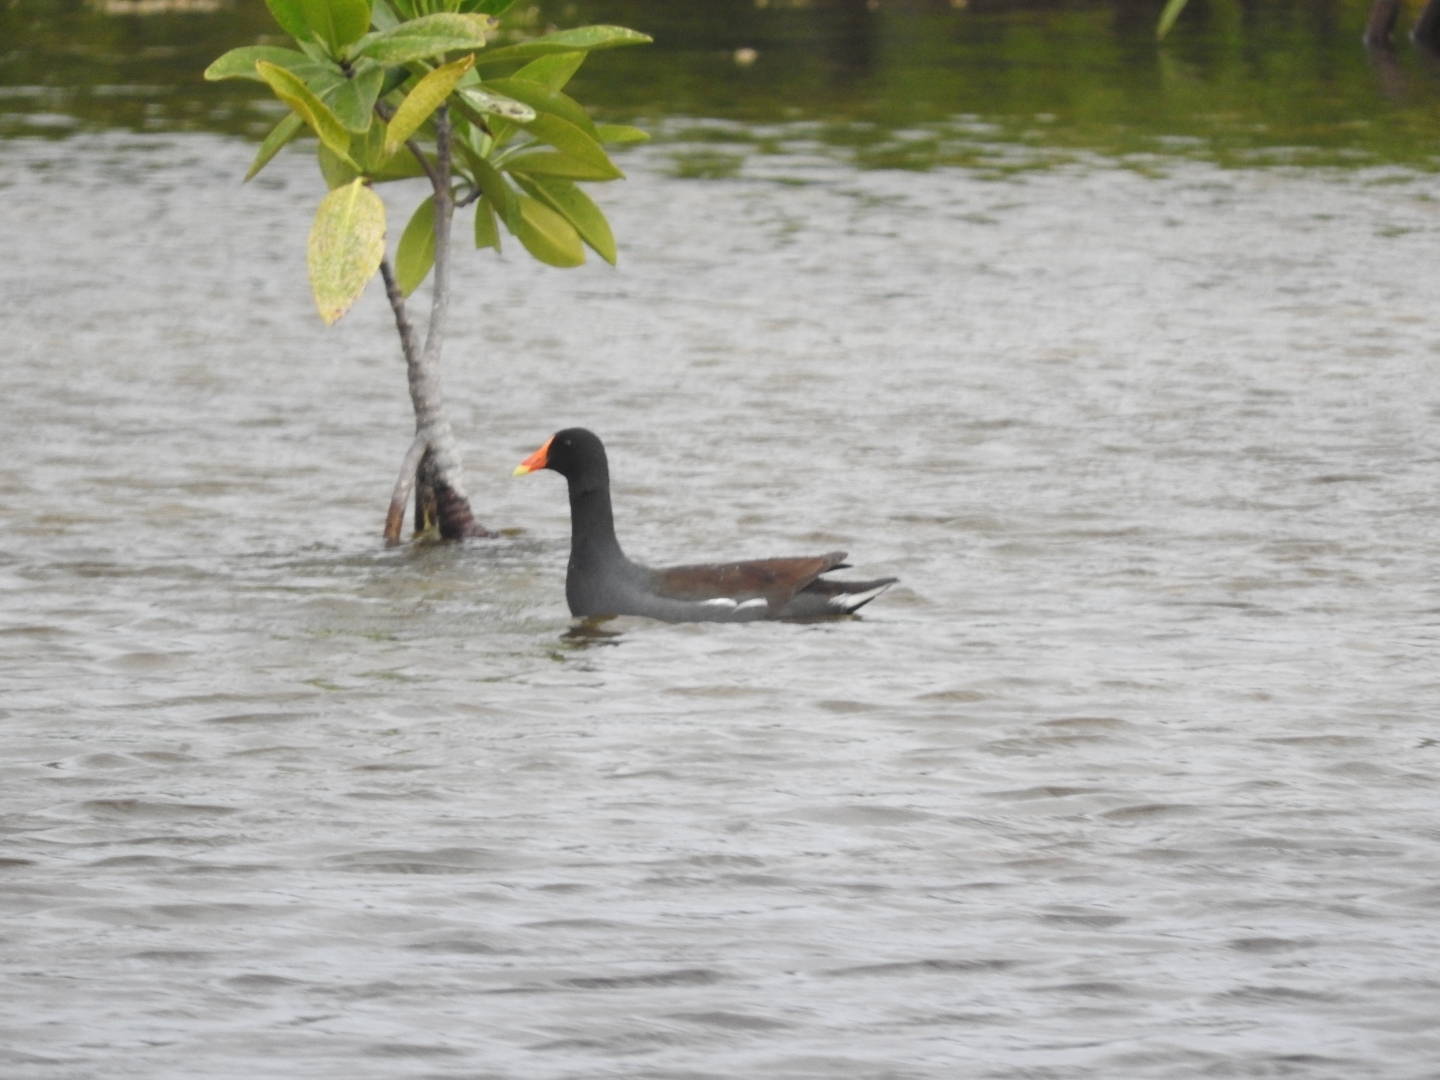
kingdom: Animalia
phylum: Chordata
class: Aves
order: Gruiformes
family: Rallidae
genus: Gallinula
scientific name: Gallinula chloropus
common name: Common moorhen
